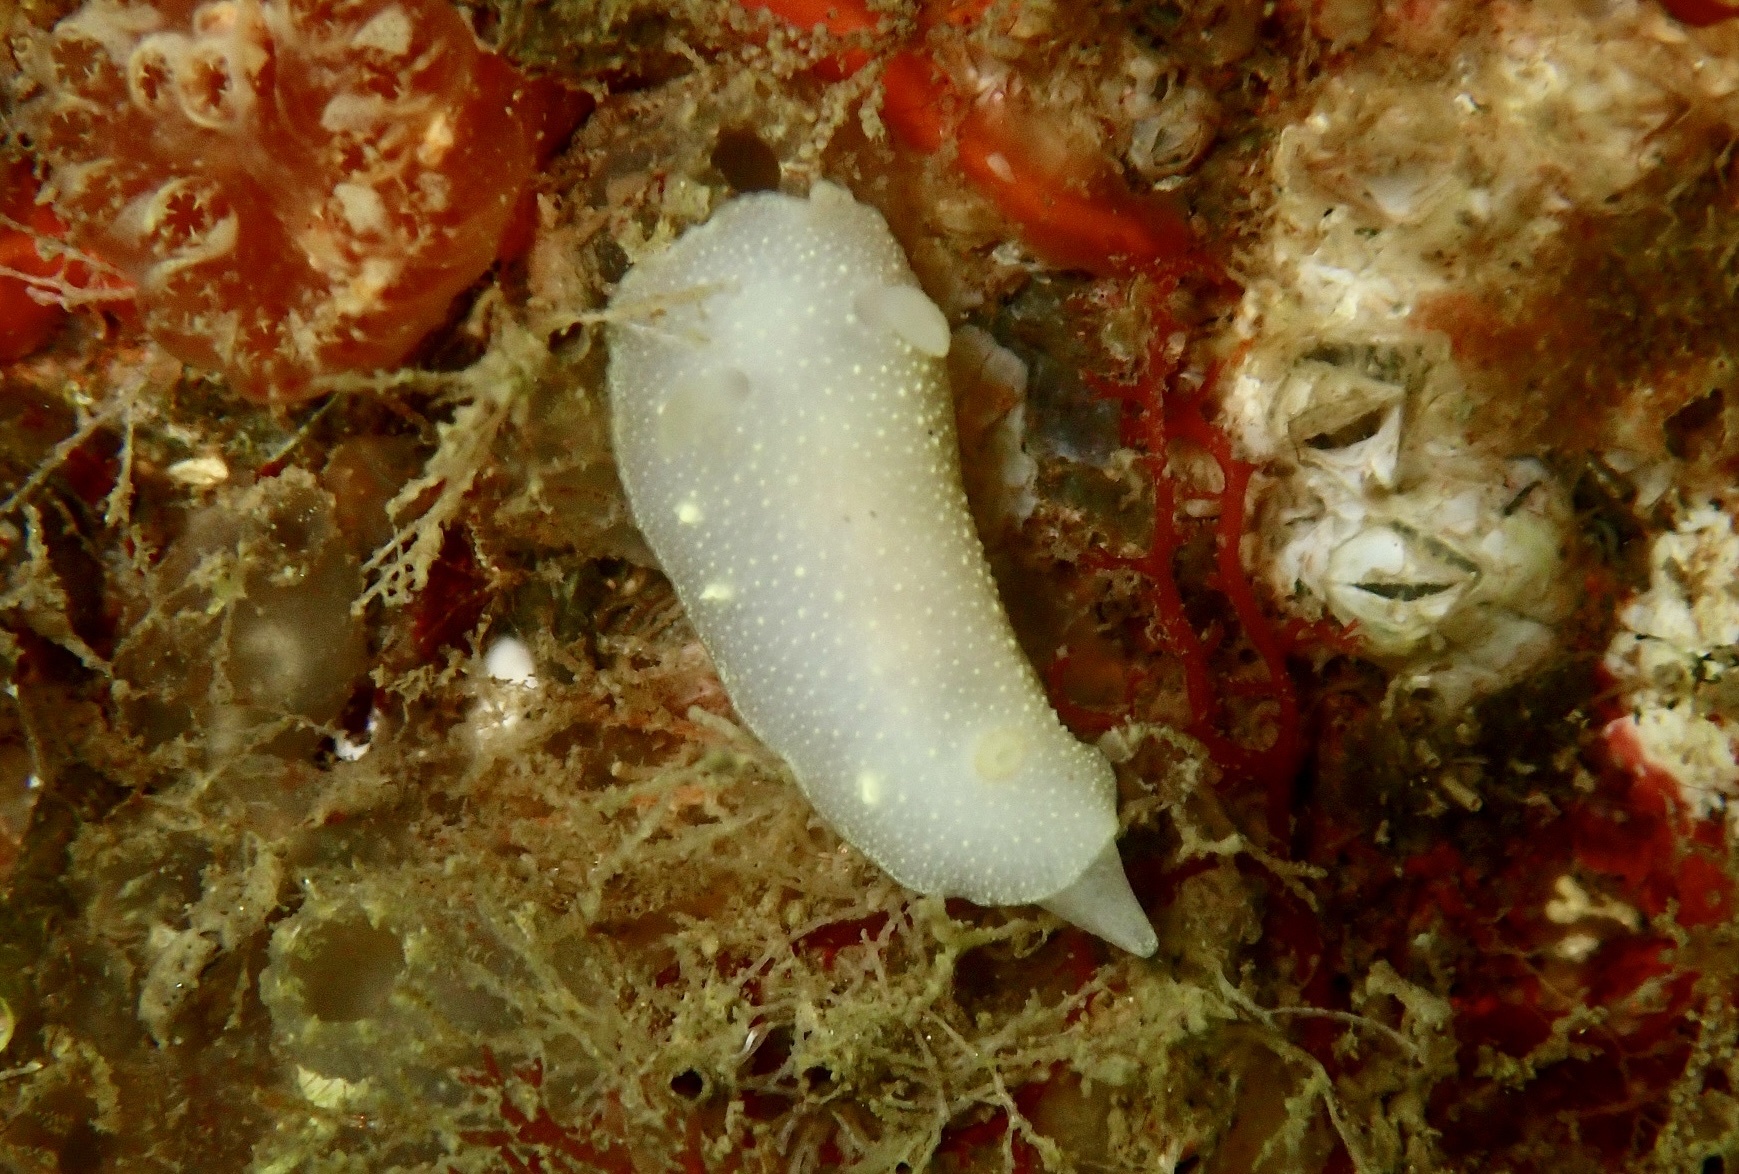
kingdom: Animalia
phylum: Mollusca
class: Gastropoda
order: Nudibranchia
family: Cadlinidae
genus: Cadlina
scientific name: Cadlina laevis
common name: White atlantic cadlina
